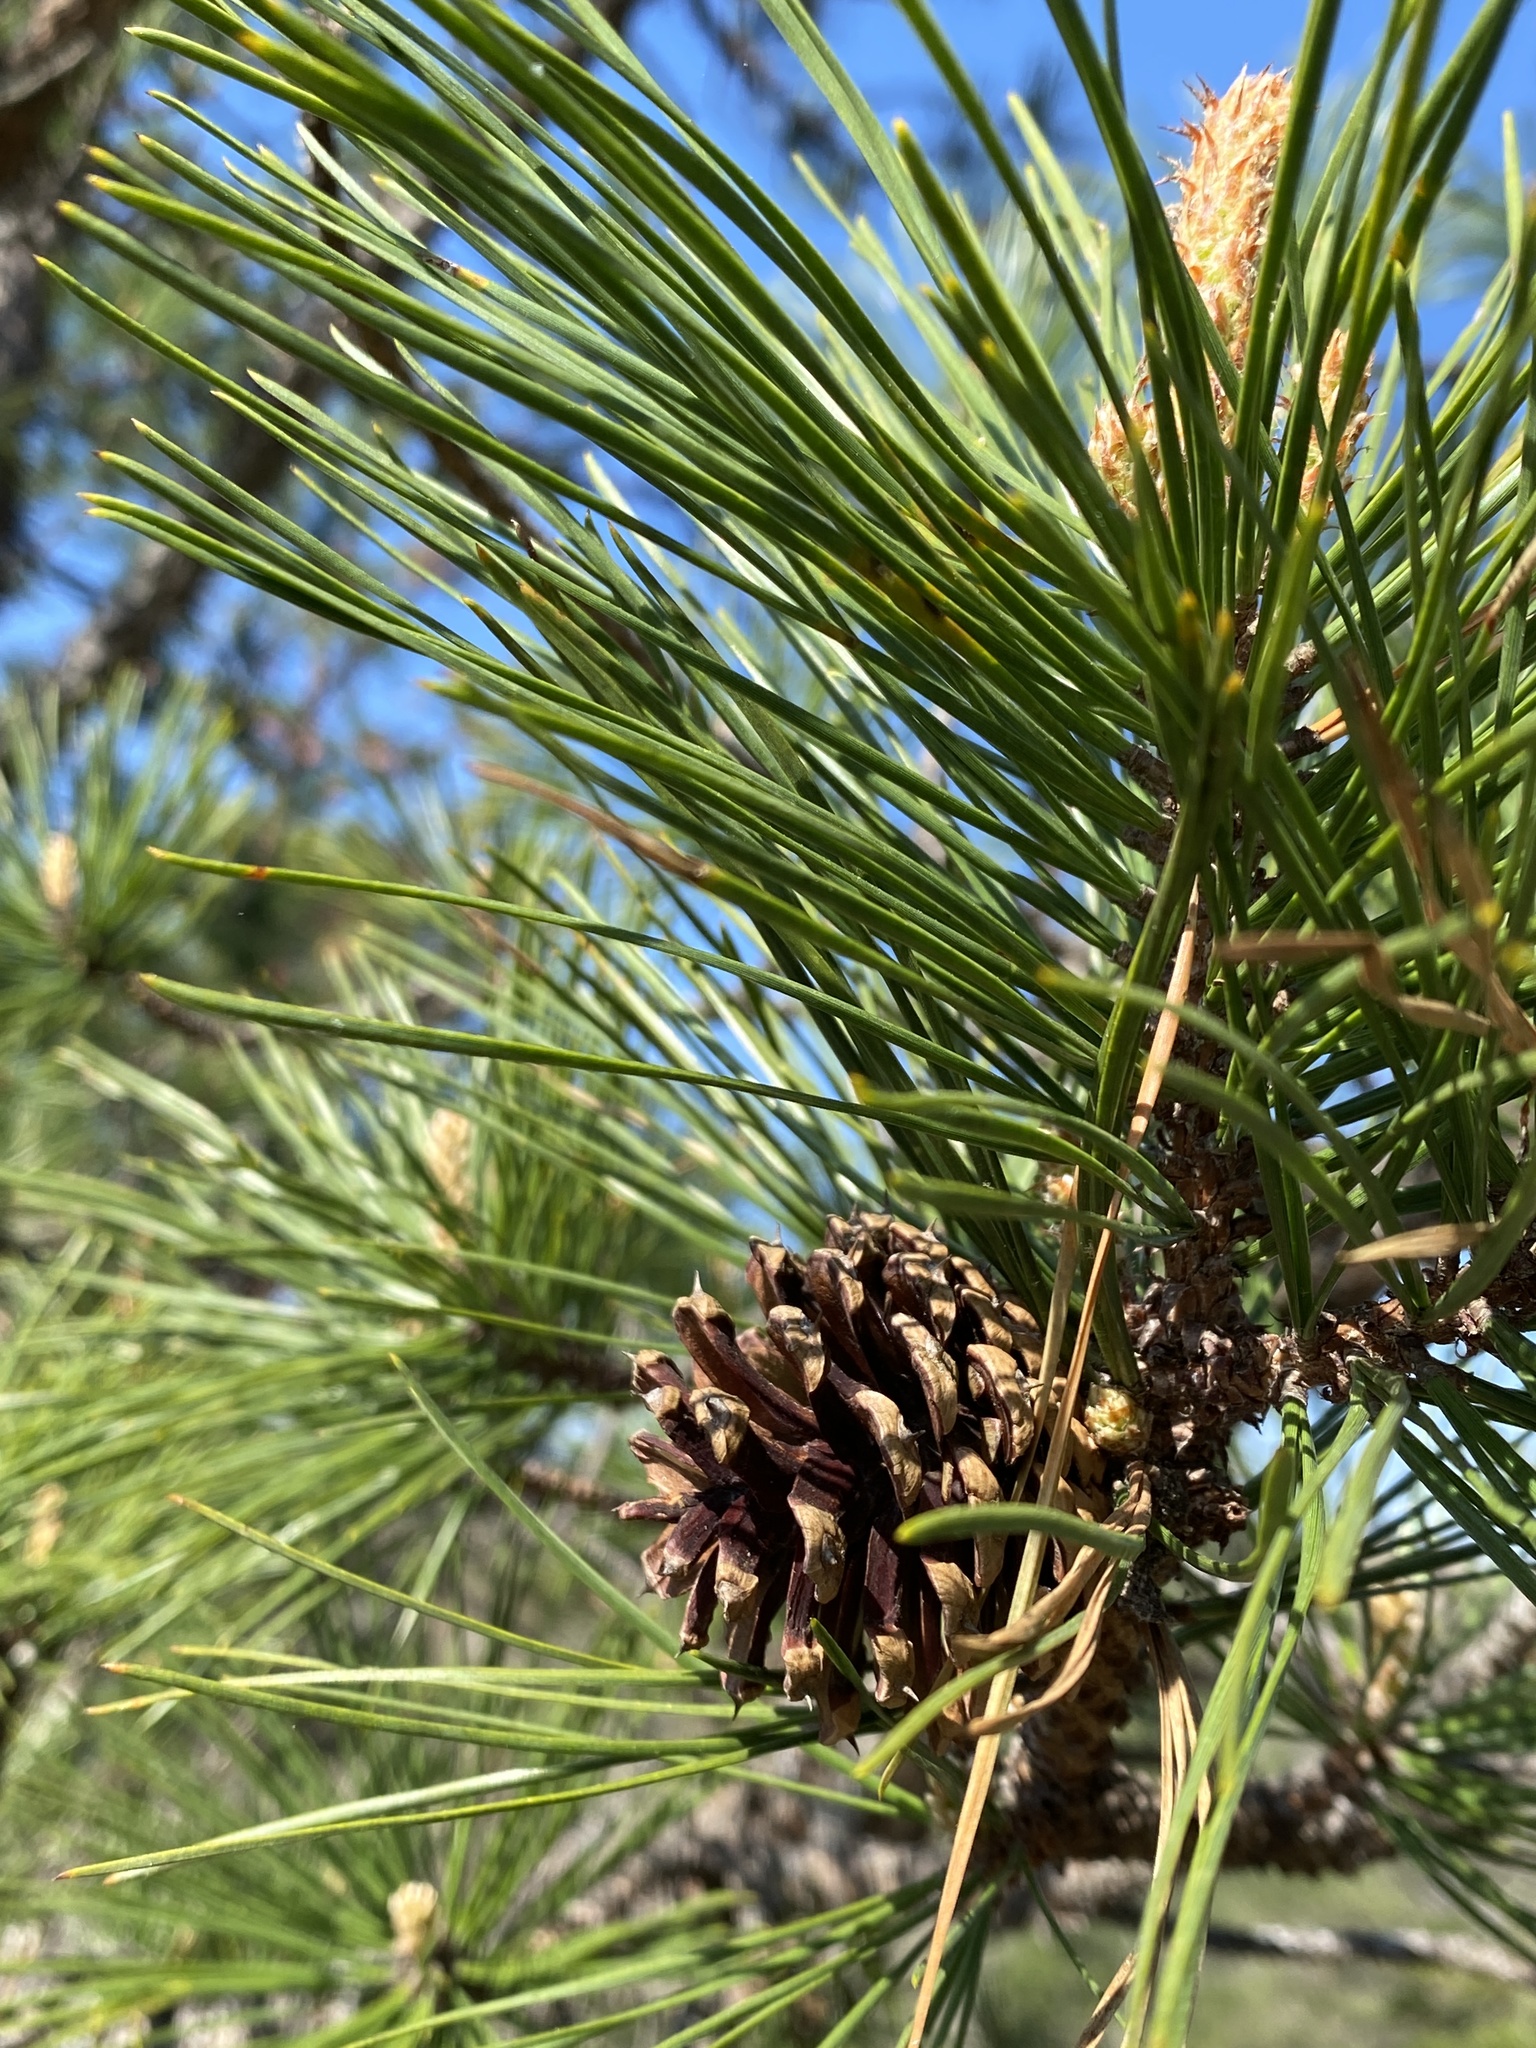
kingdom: Plantae
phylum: Tracheophyta
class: Pinopsida
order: Pinales
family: Pinaceae
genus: Pinus
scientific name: Pinus rigida
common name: Pitch pine
